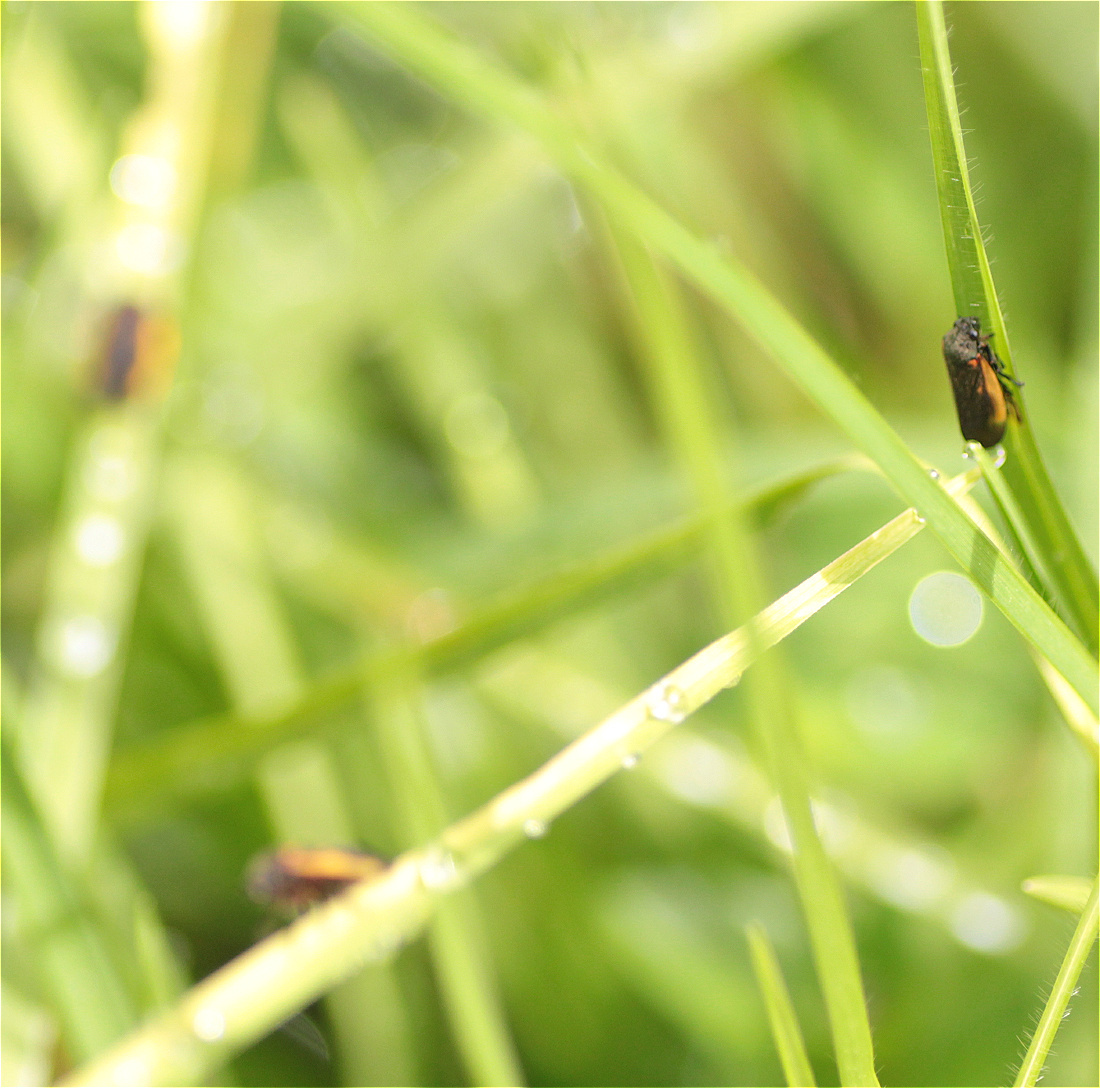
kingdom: Animalia
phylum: Arthropoda
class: Insecta
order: Hemiptera
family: Cercopidae
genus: Aeneolamia
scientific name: Aeneolamia flavilatera
